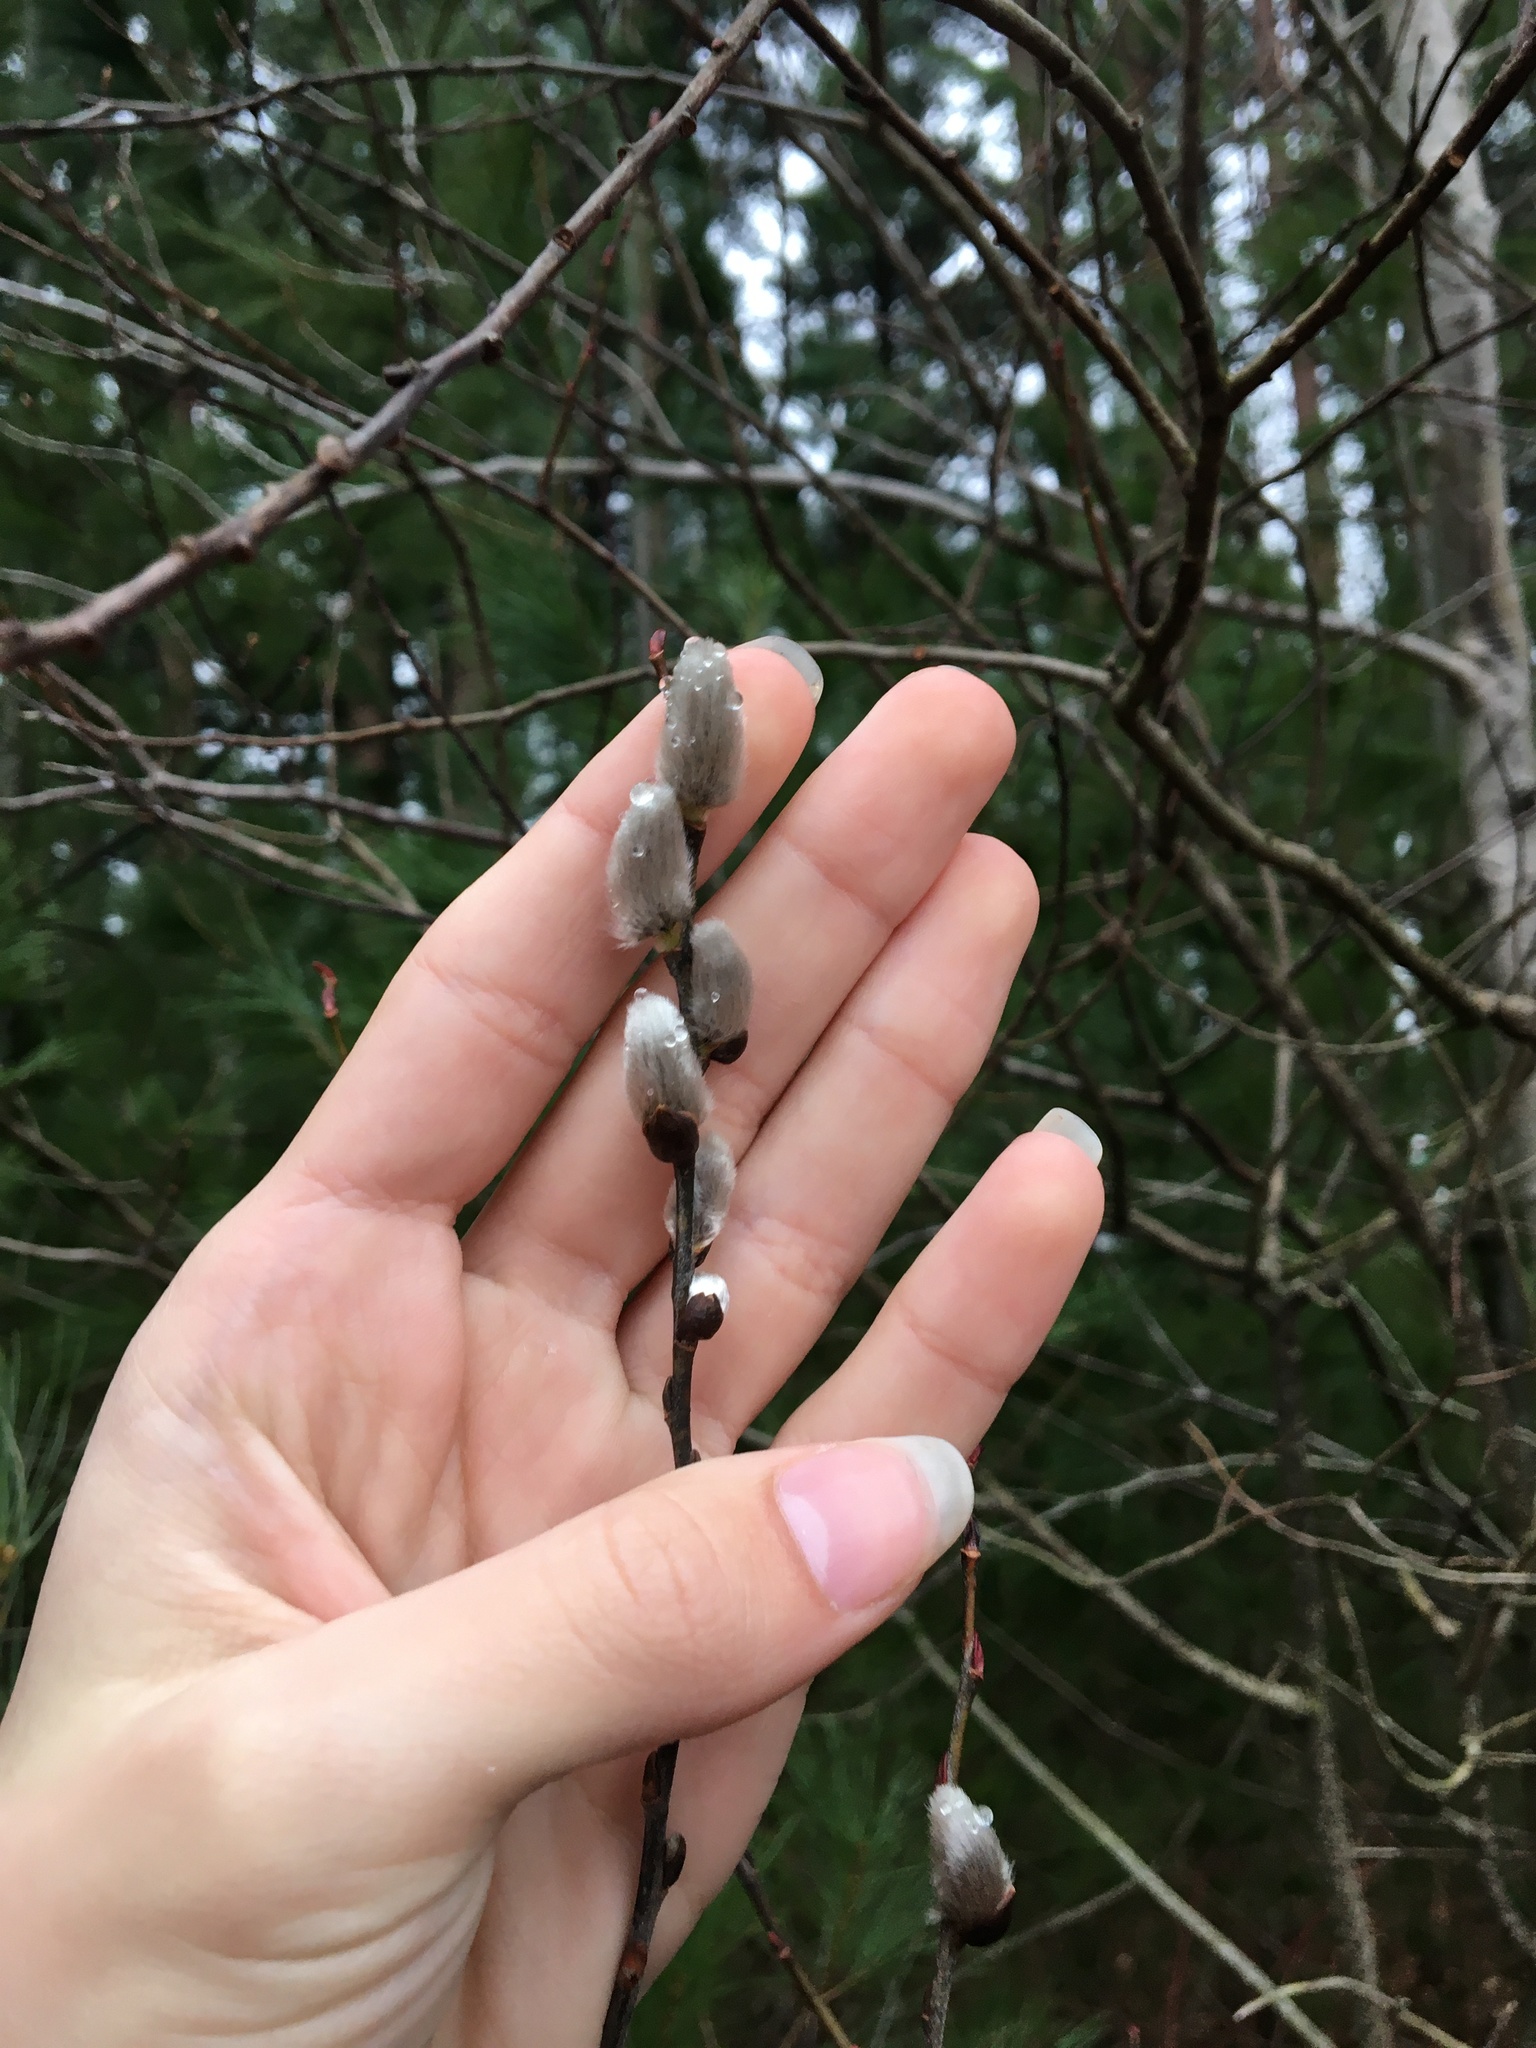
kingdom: Plantae
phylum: Tracheophyta
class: Magnoliopsida
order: Malpighiales
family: Salicaceae
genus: Salix
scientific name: Salix discolor
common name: Glaucous willow
